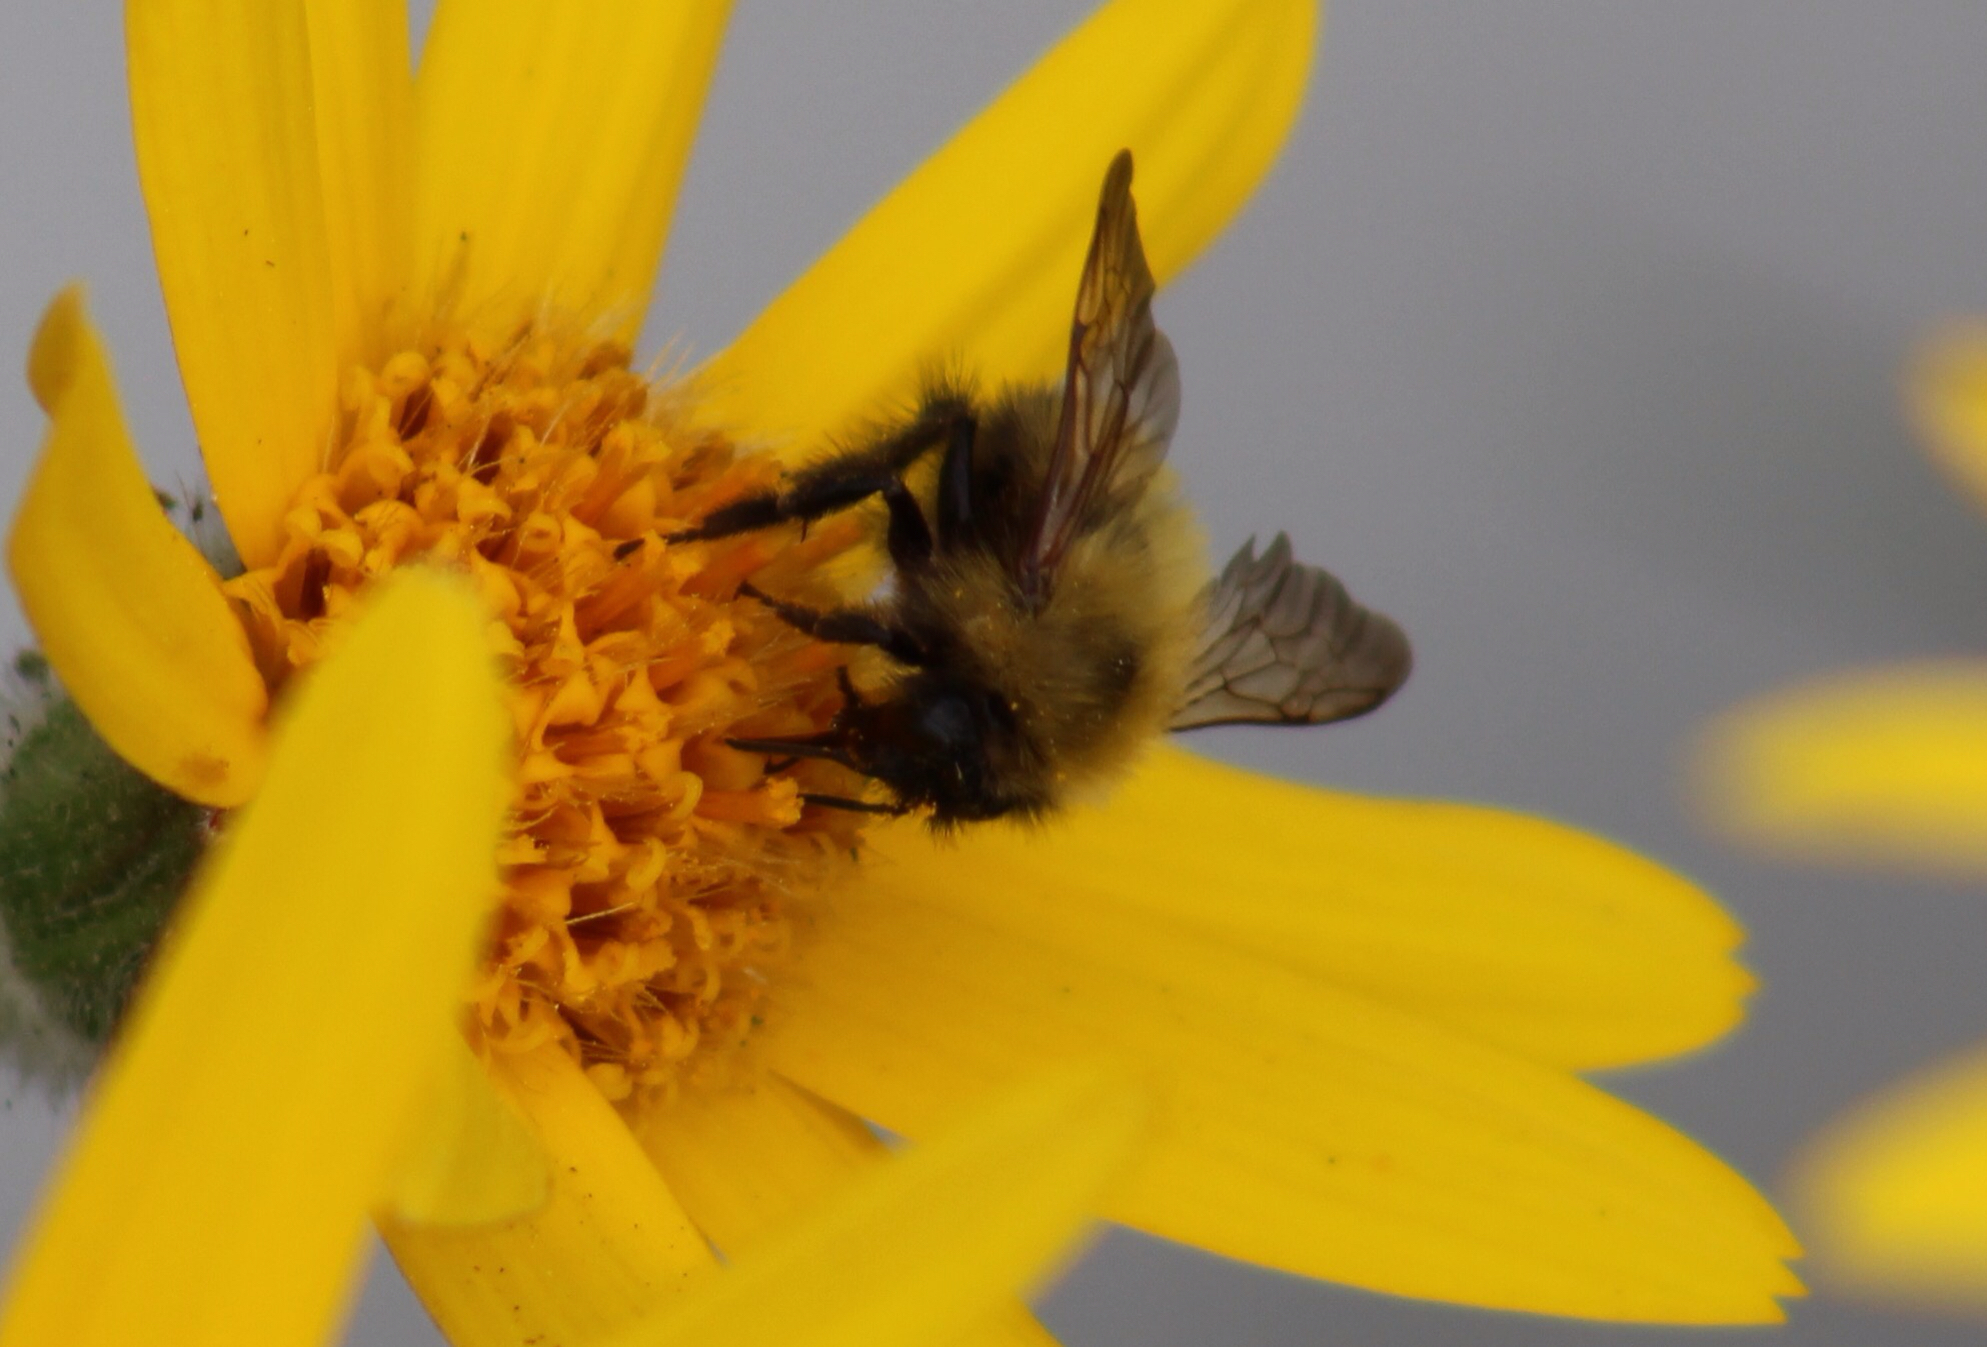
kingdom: Animalia
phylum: Arthropoda
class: Insecta
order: Hymenoptera
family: Apidae
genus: Bombus
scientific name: Bombus perplexus
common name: Confusing bumble bee
